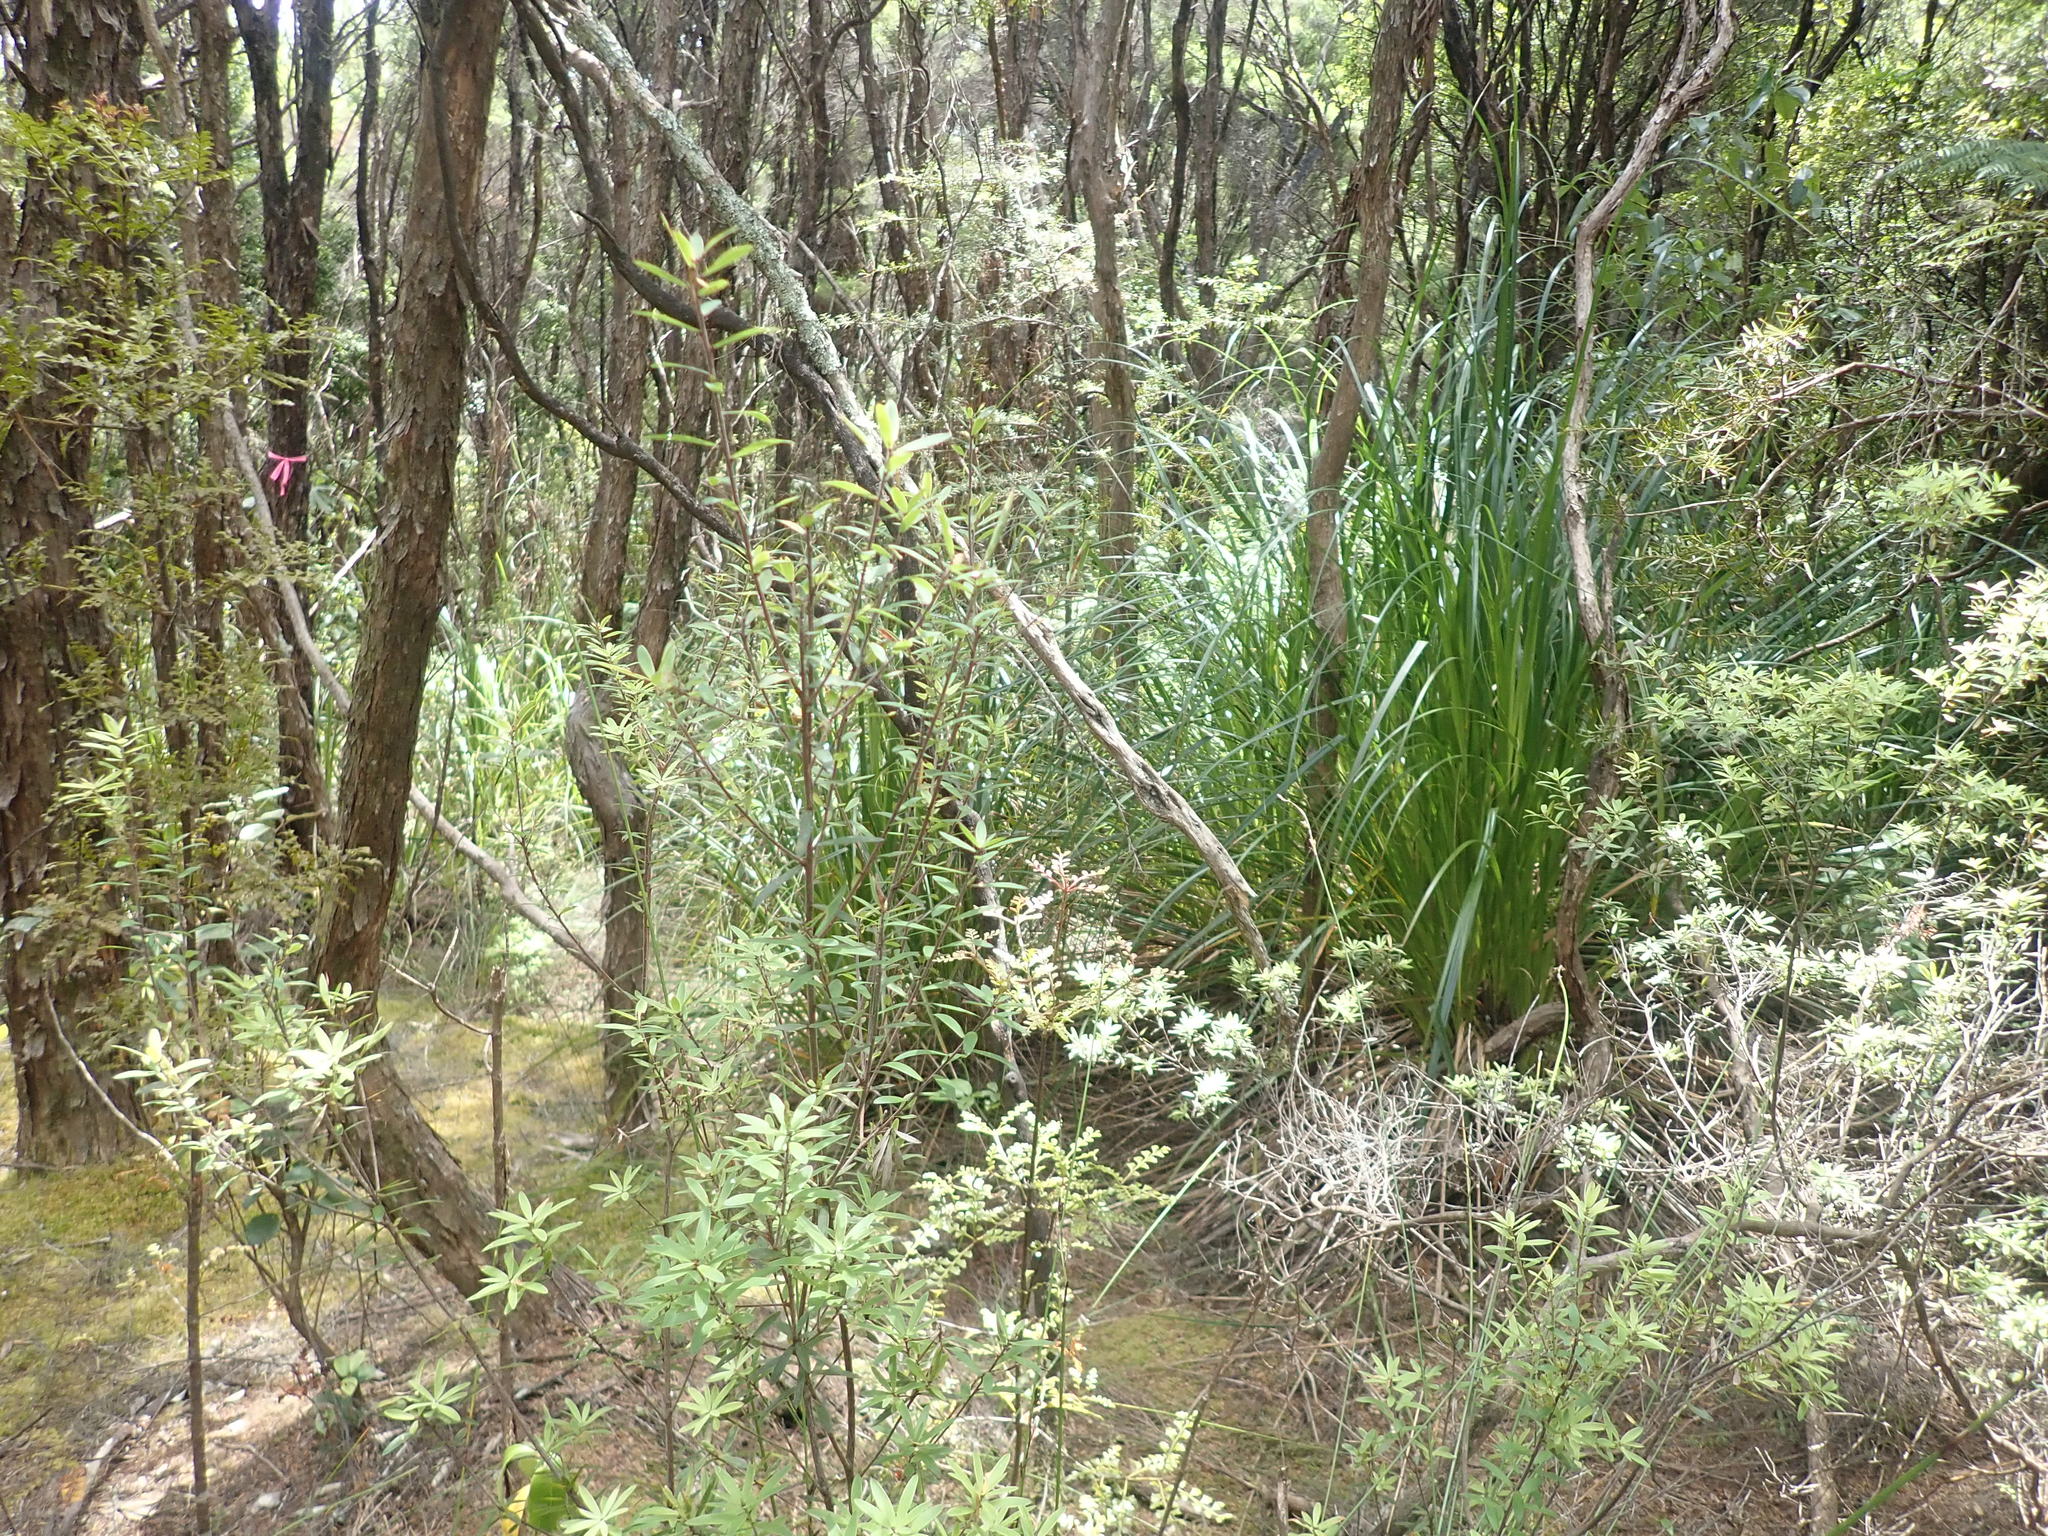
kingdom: Plantae
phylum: Tracheophyta
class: Liliopsida
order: Poales
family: Cyperaceae
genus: Gahnia
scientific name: Gahnia xanthocarpa
